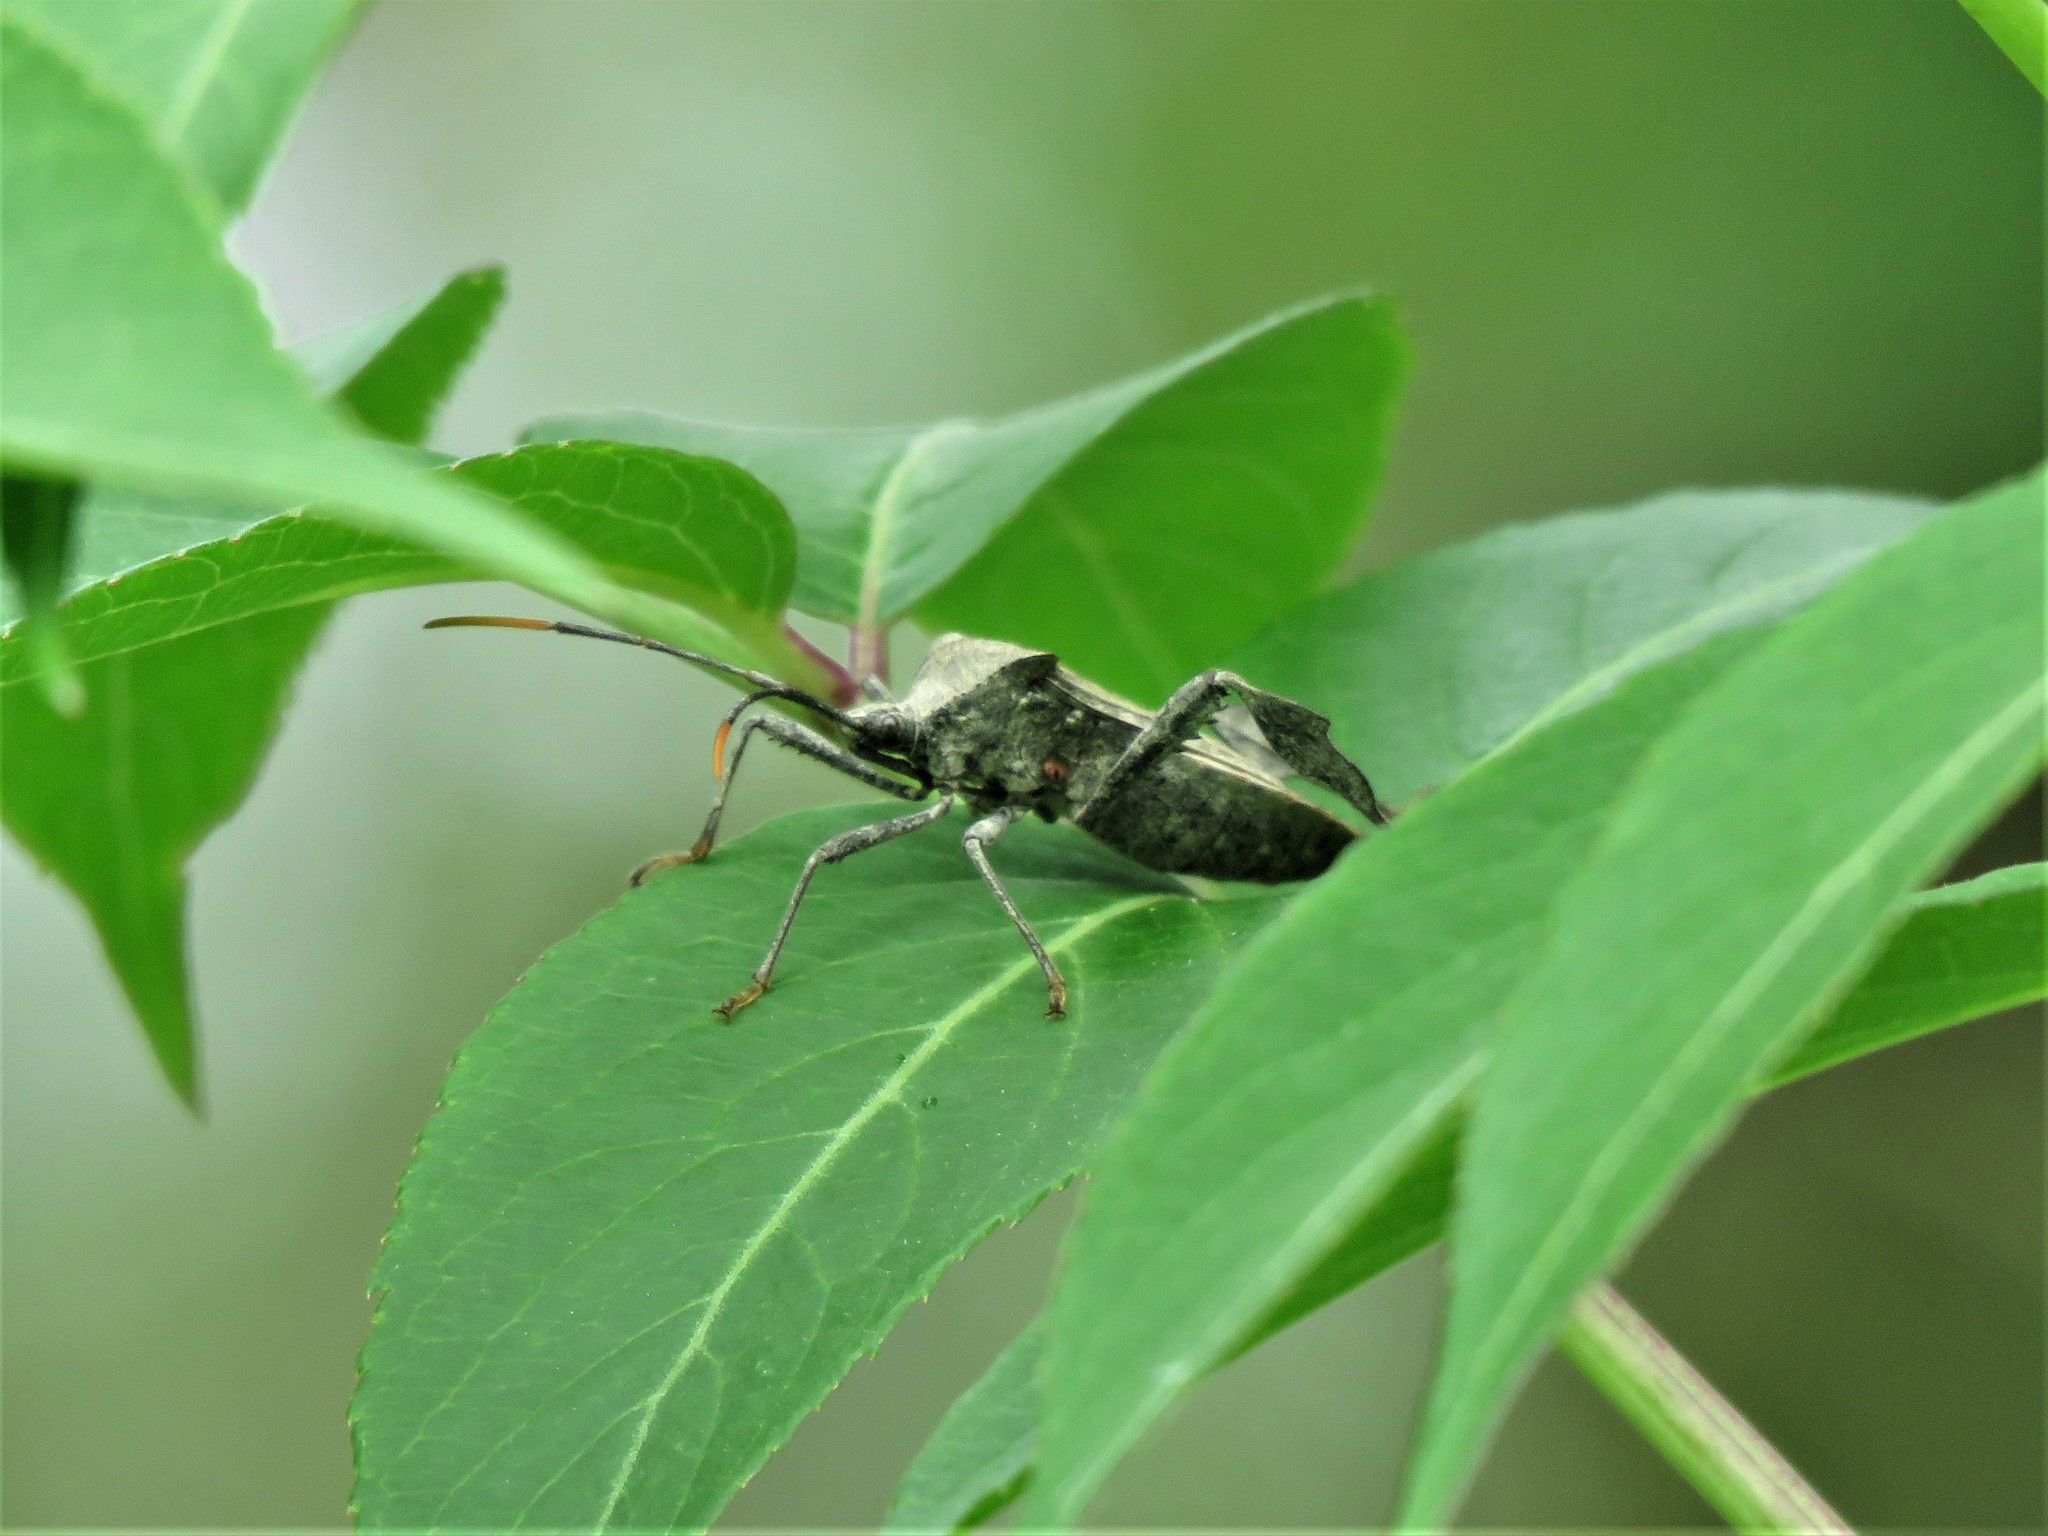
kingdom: Animalia
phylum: Arthropoda
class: Insecta
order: Hemiptera
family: Coreidae
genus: Acanthocephala
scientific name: Acanthocephala terminalis
